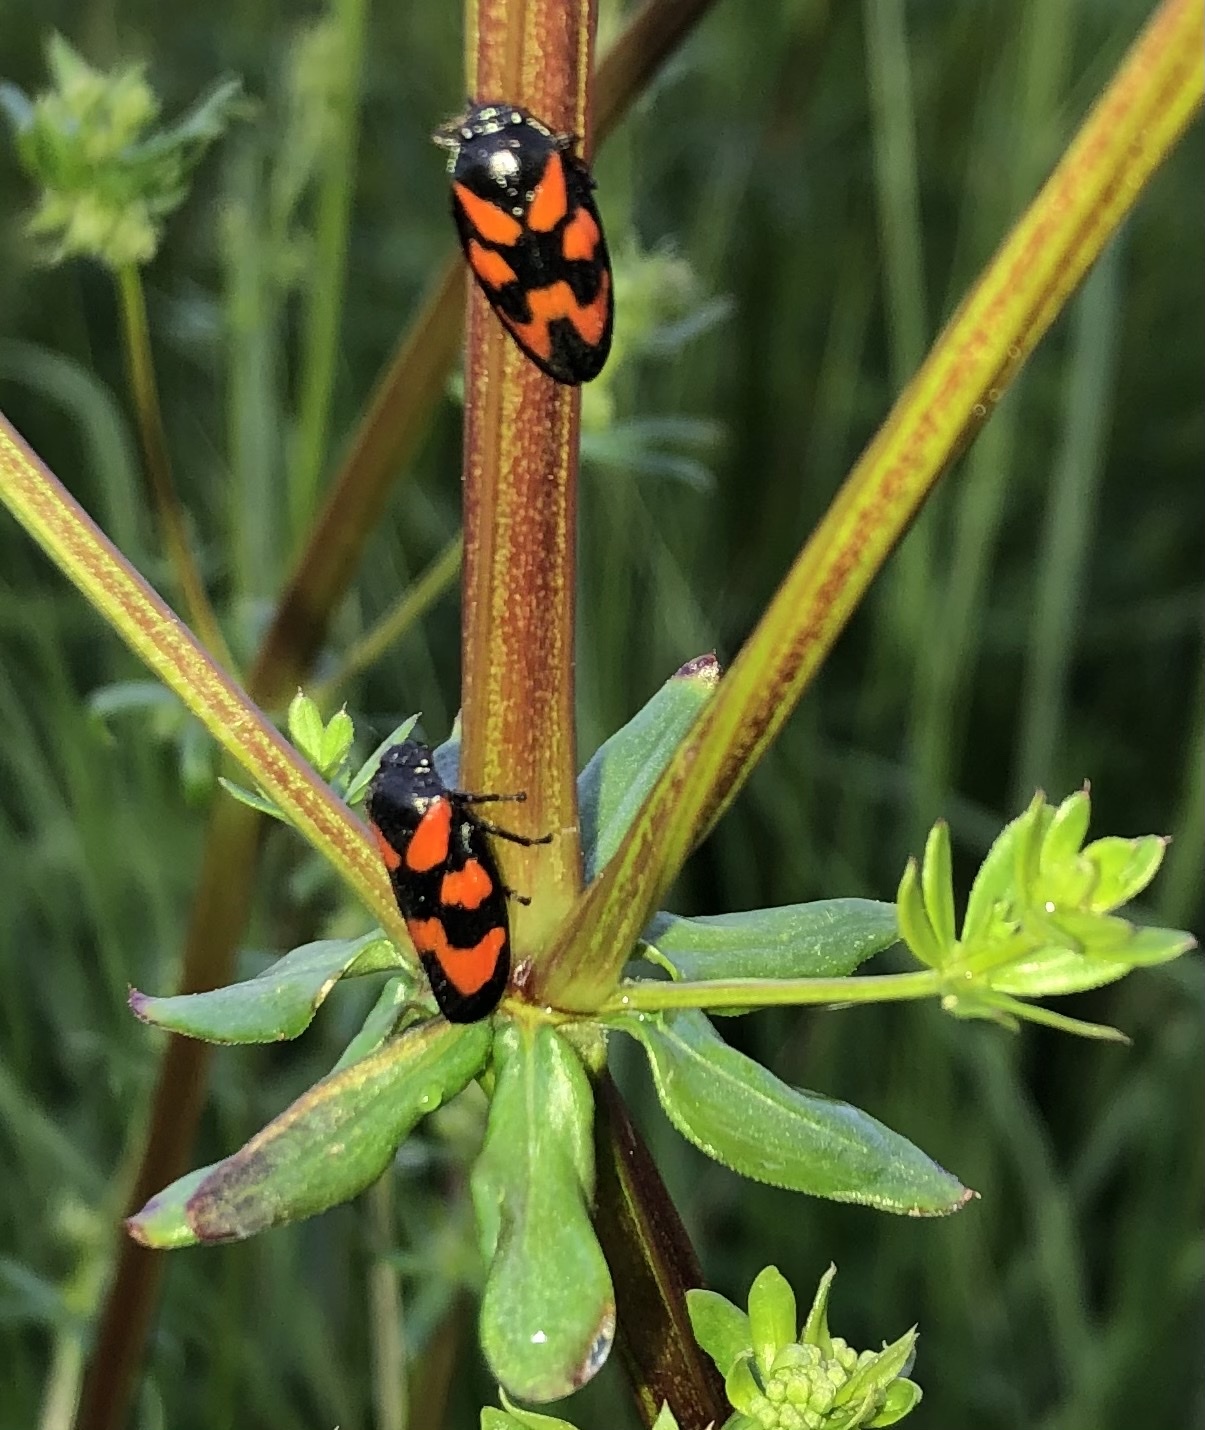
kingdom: Animalia
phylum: Arthropoda
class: Insecta
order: Hemiptera
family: Cercopidae
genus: Cercopis
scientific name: Cercopis vulnerata
